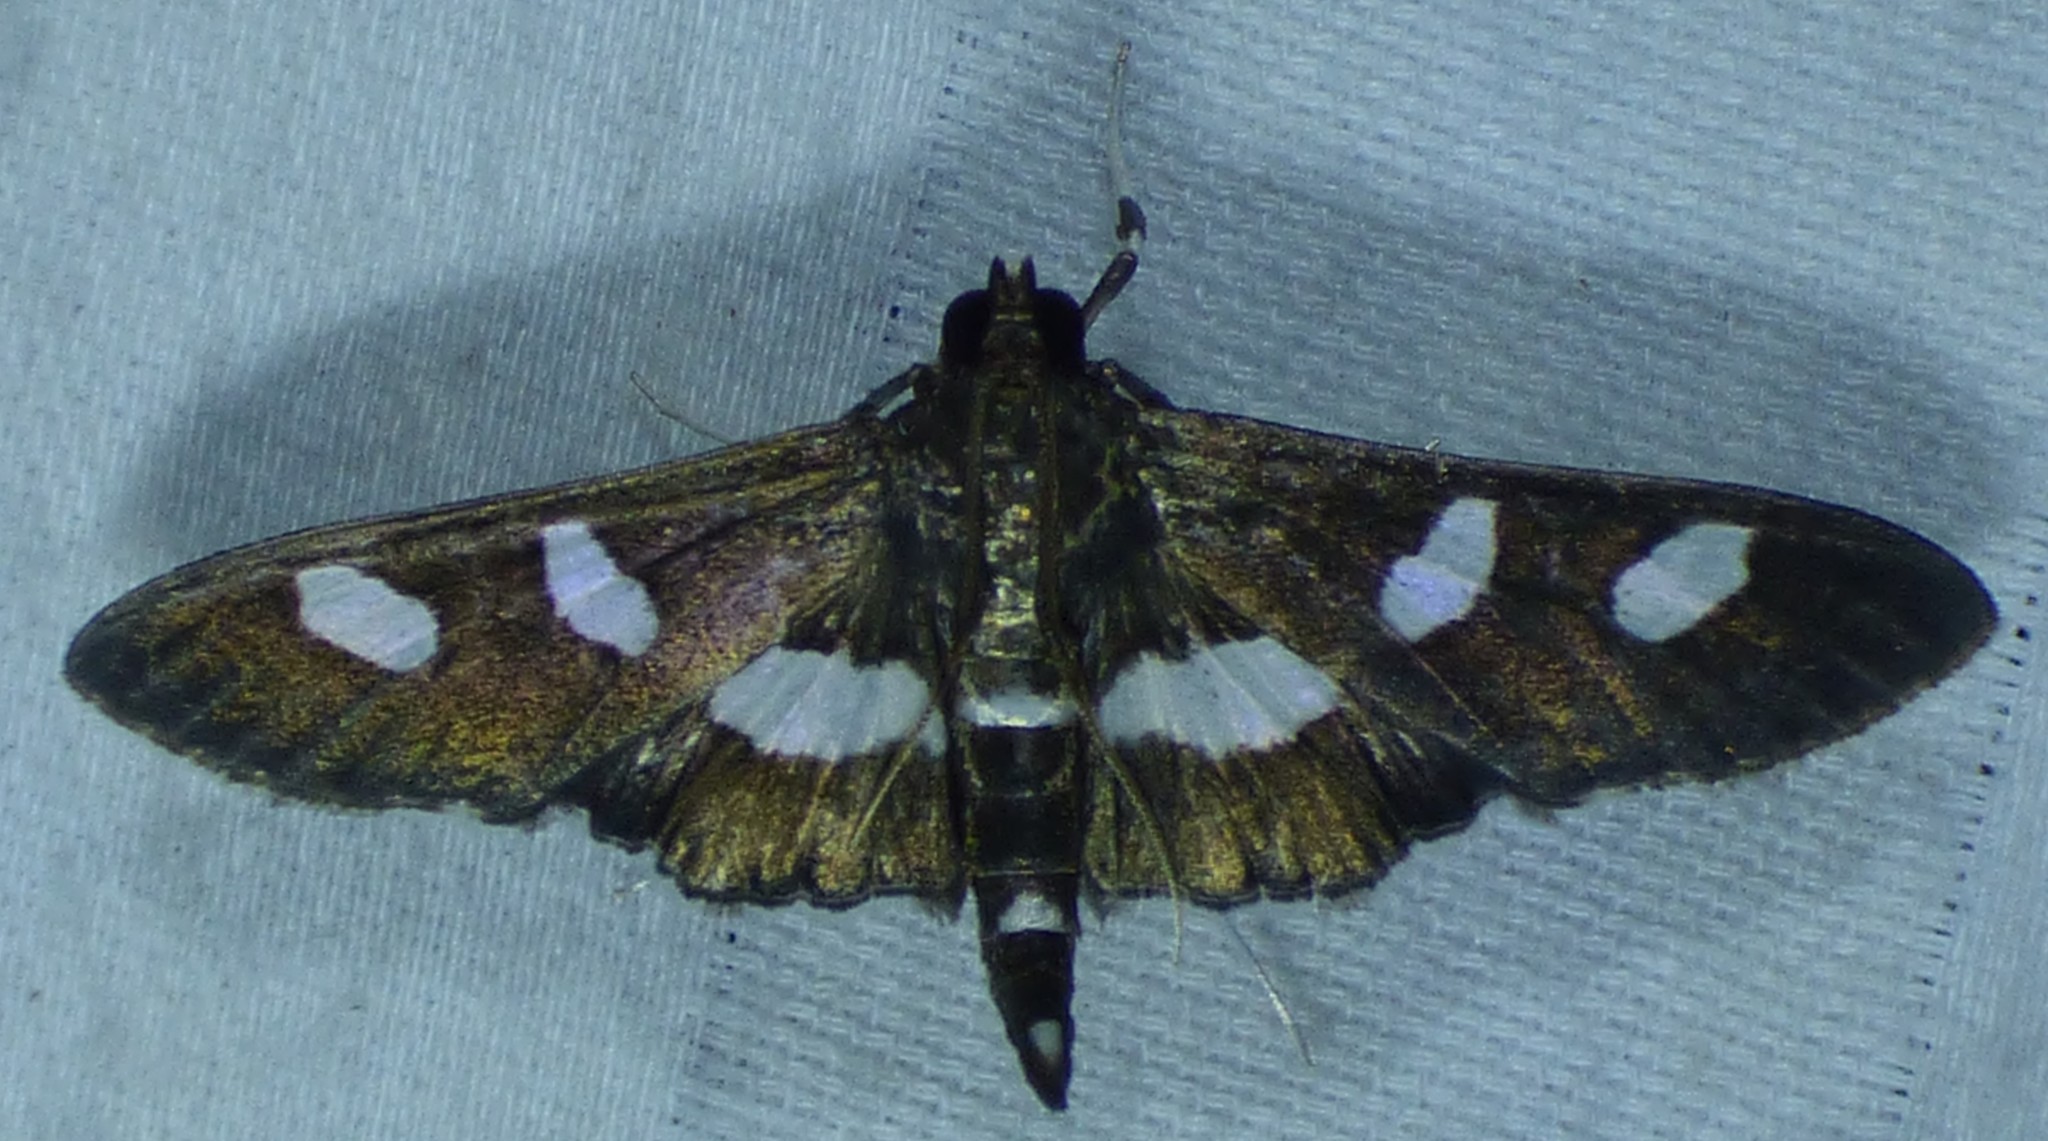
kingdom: Animalia
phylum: Arthropoda
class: Insecta
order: Lepidoptera
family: Crambidae
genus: Desmia
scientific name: Desmia funeralis
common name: Grape leaf folder moth
